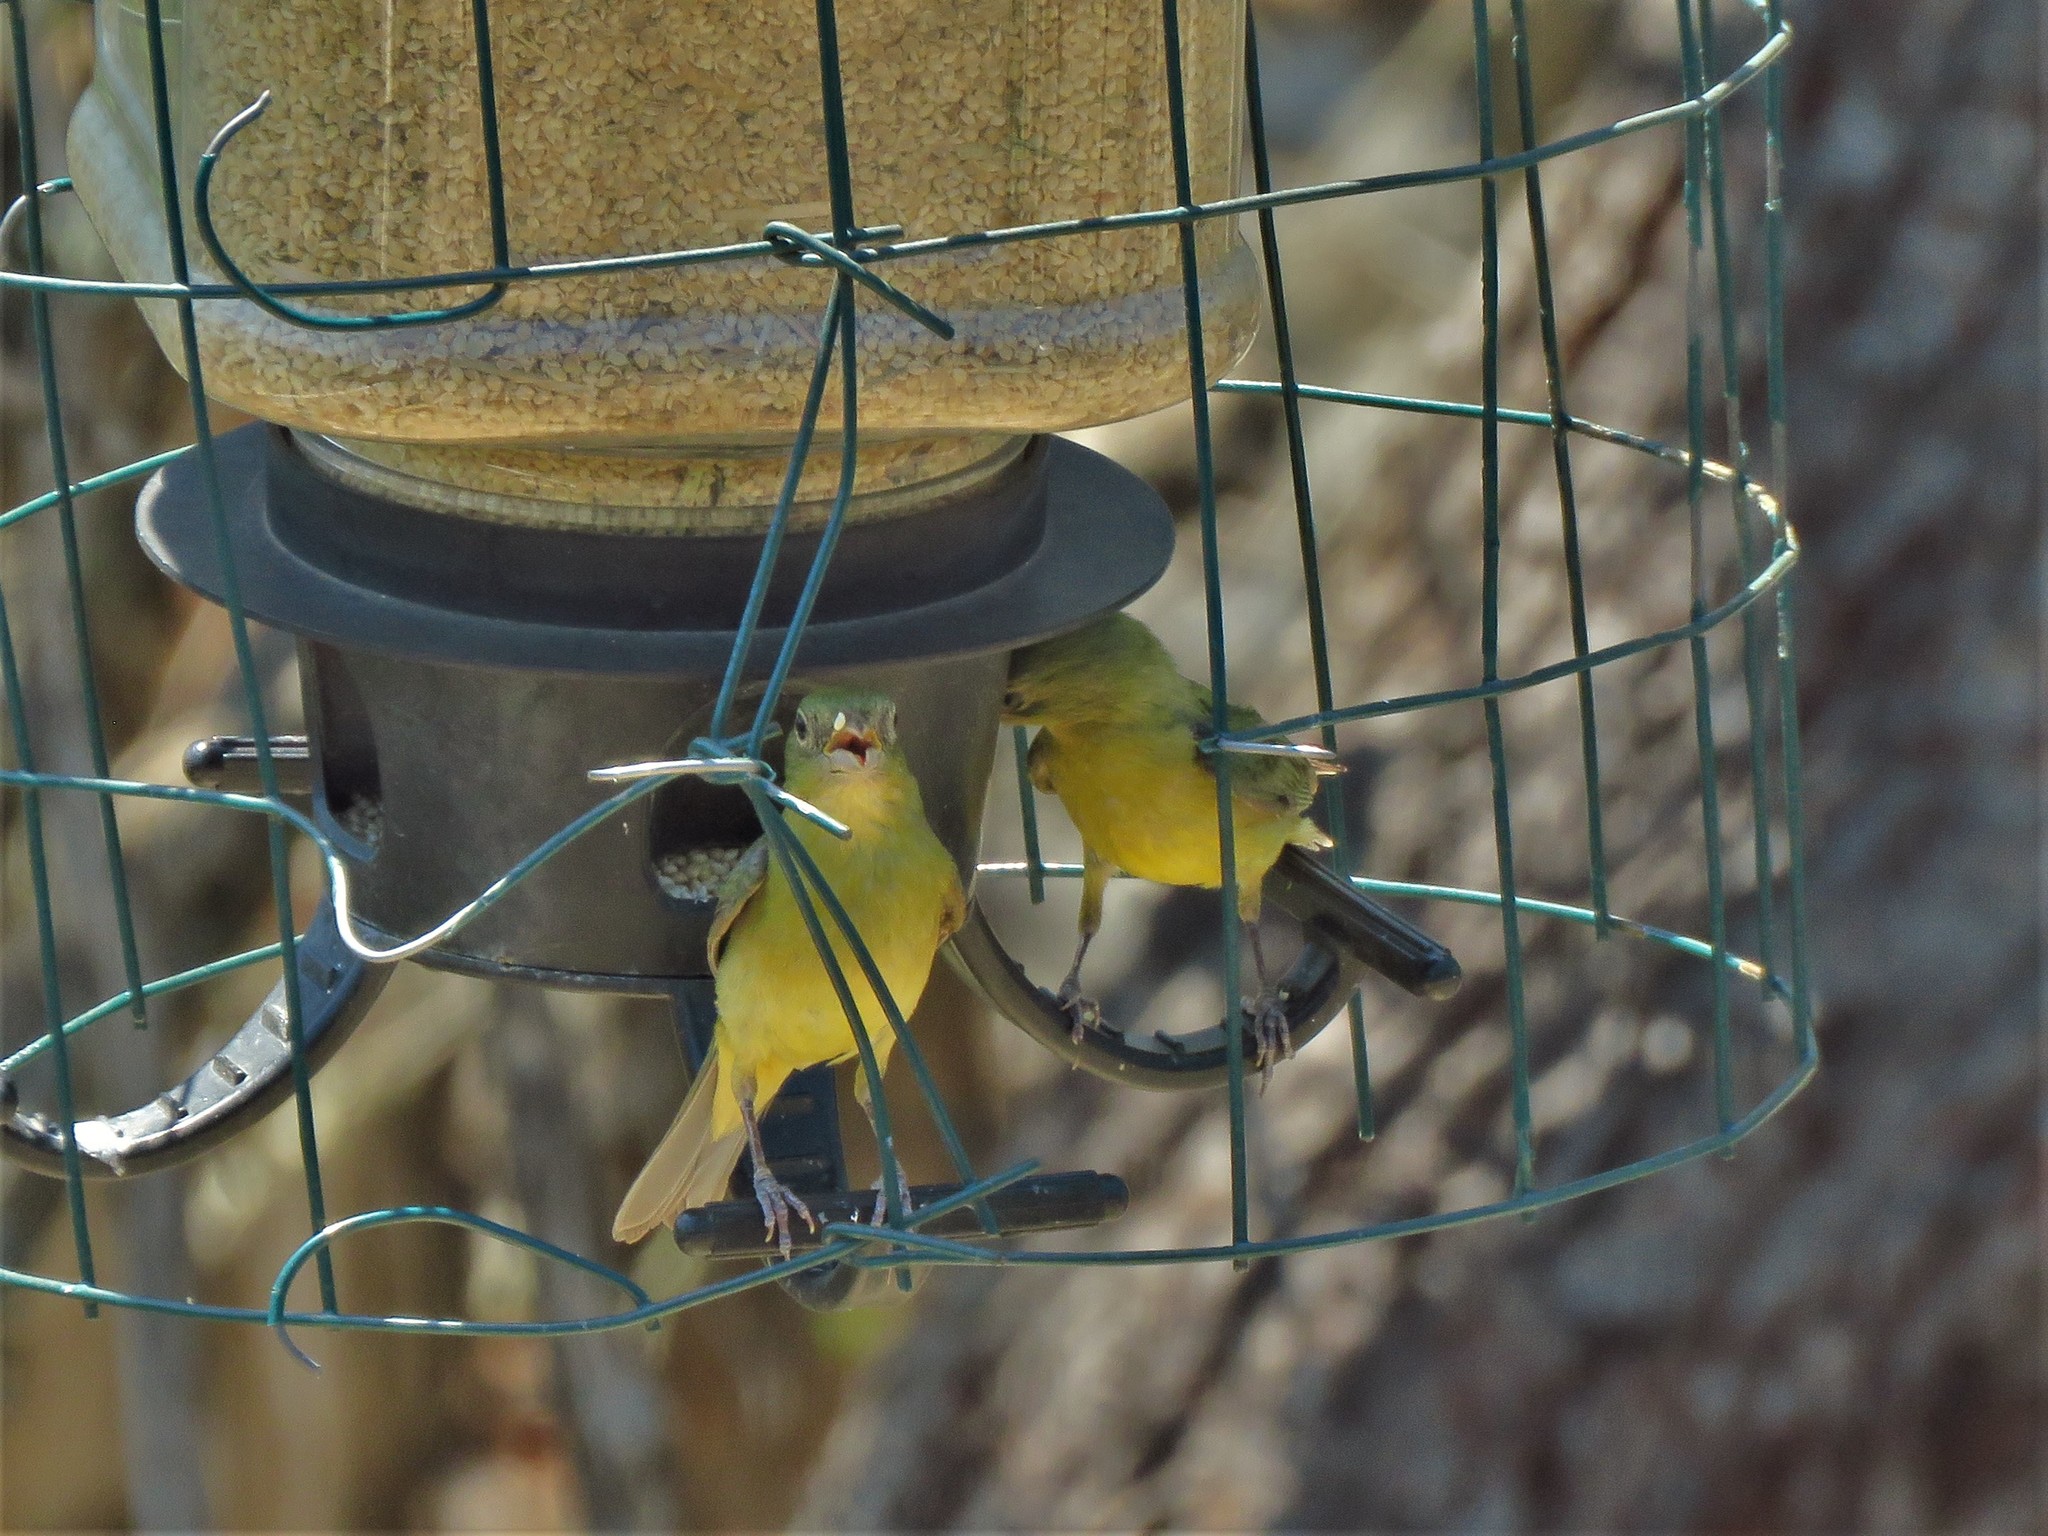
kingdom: Animalia
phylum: Chordata
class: Aves
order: Passeriformes
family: Cardinalidae
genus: Passerina
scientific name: Passerina ciris
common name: Painted bunting
